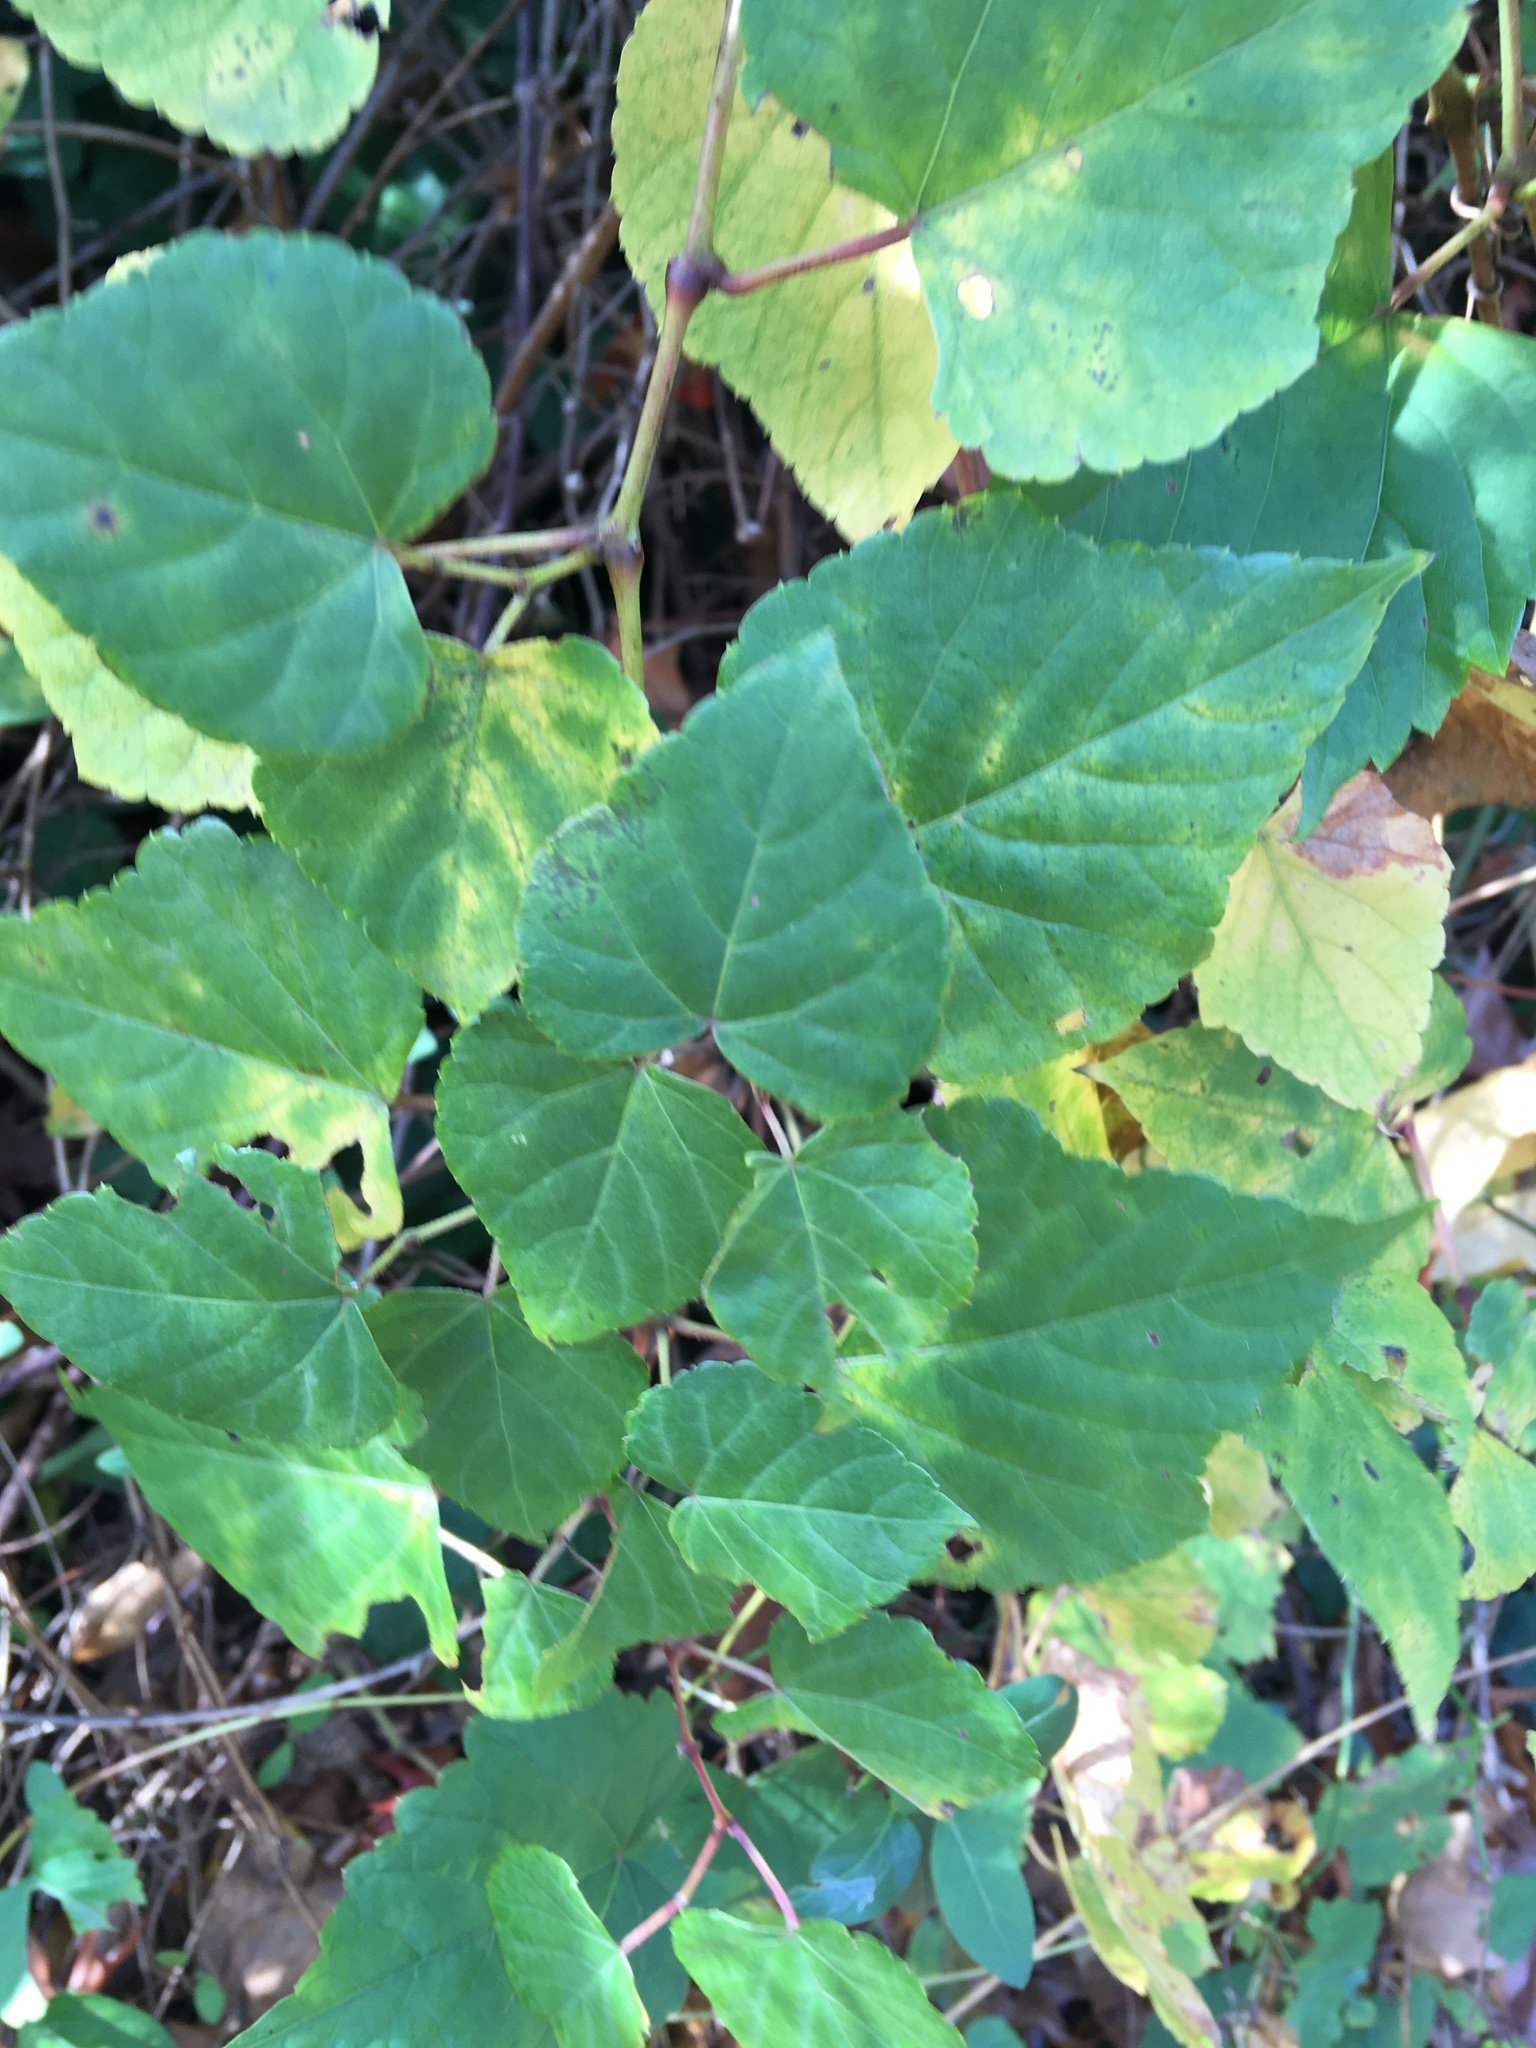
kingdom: Plantae
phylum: Tracheophyta
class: Magnoliopsida
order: Vitales
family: Vitaceae
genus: Ampelopsis
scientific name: Ampelopsis glandulosa
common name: Amur peppervine
